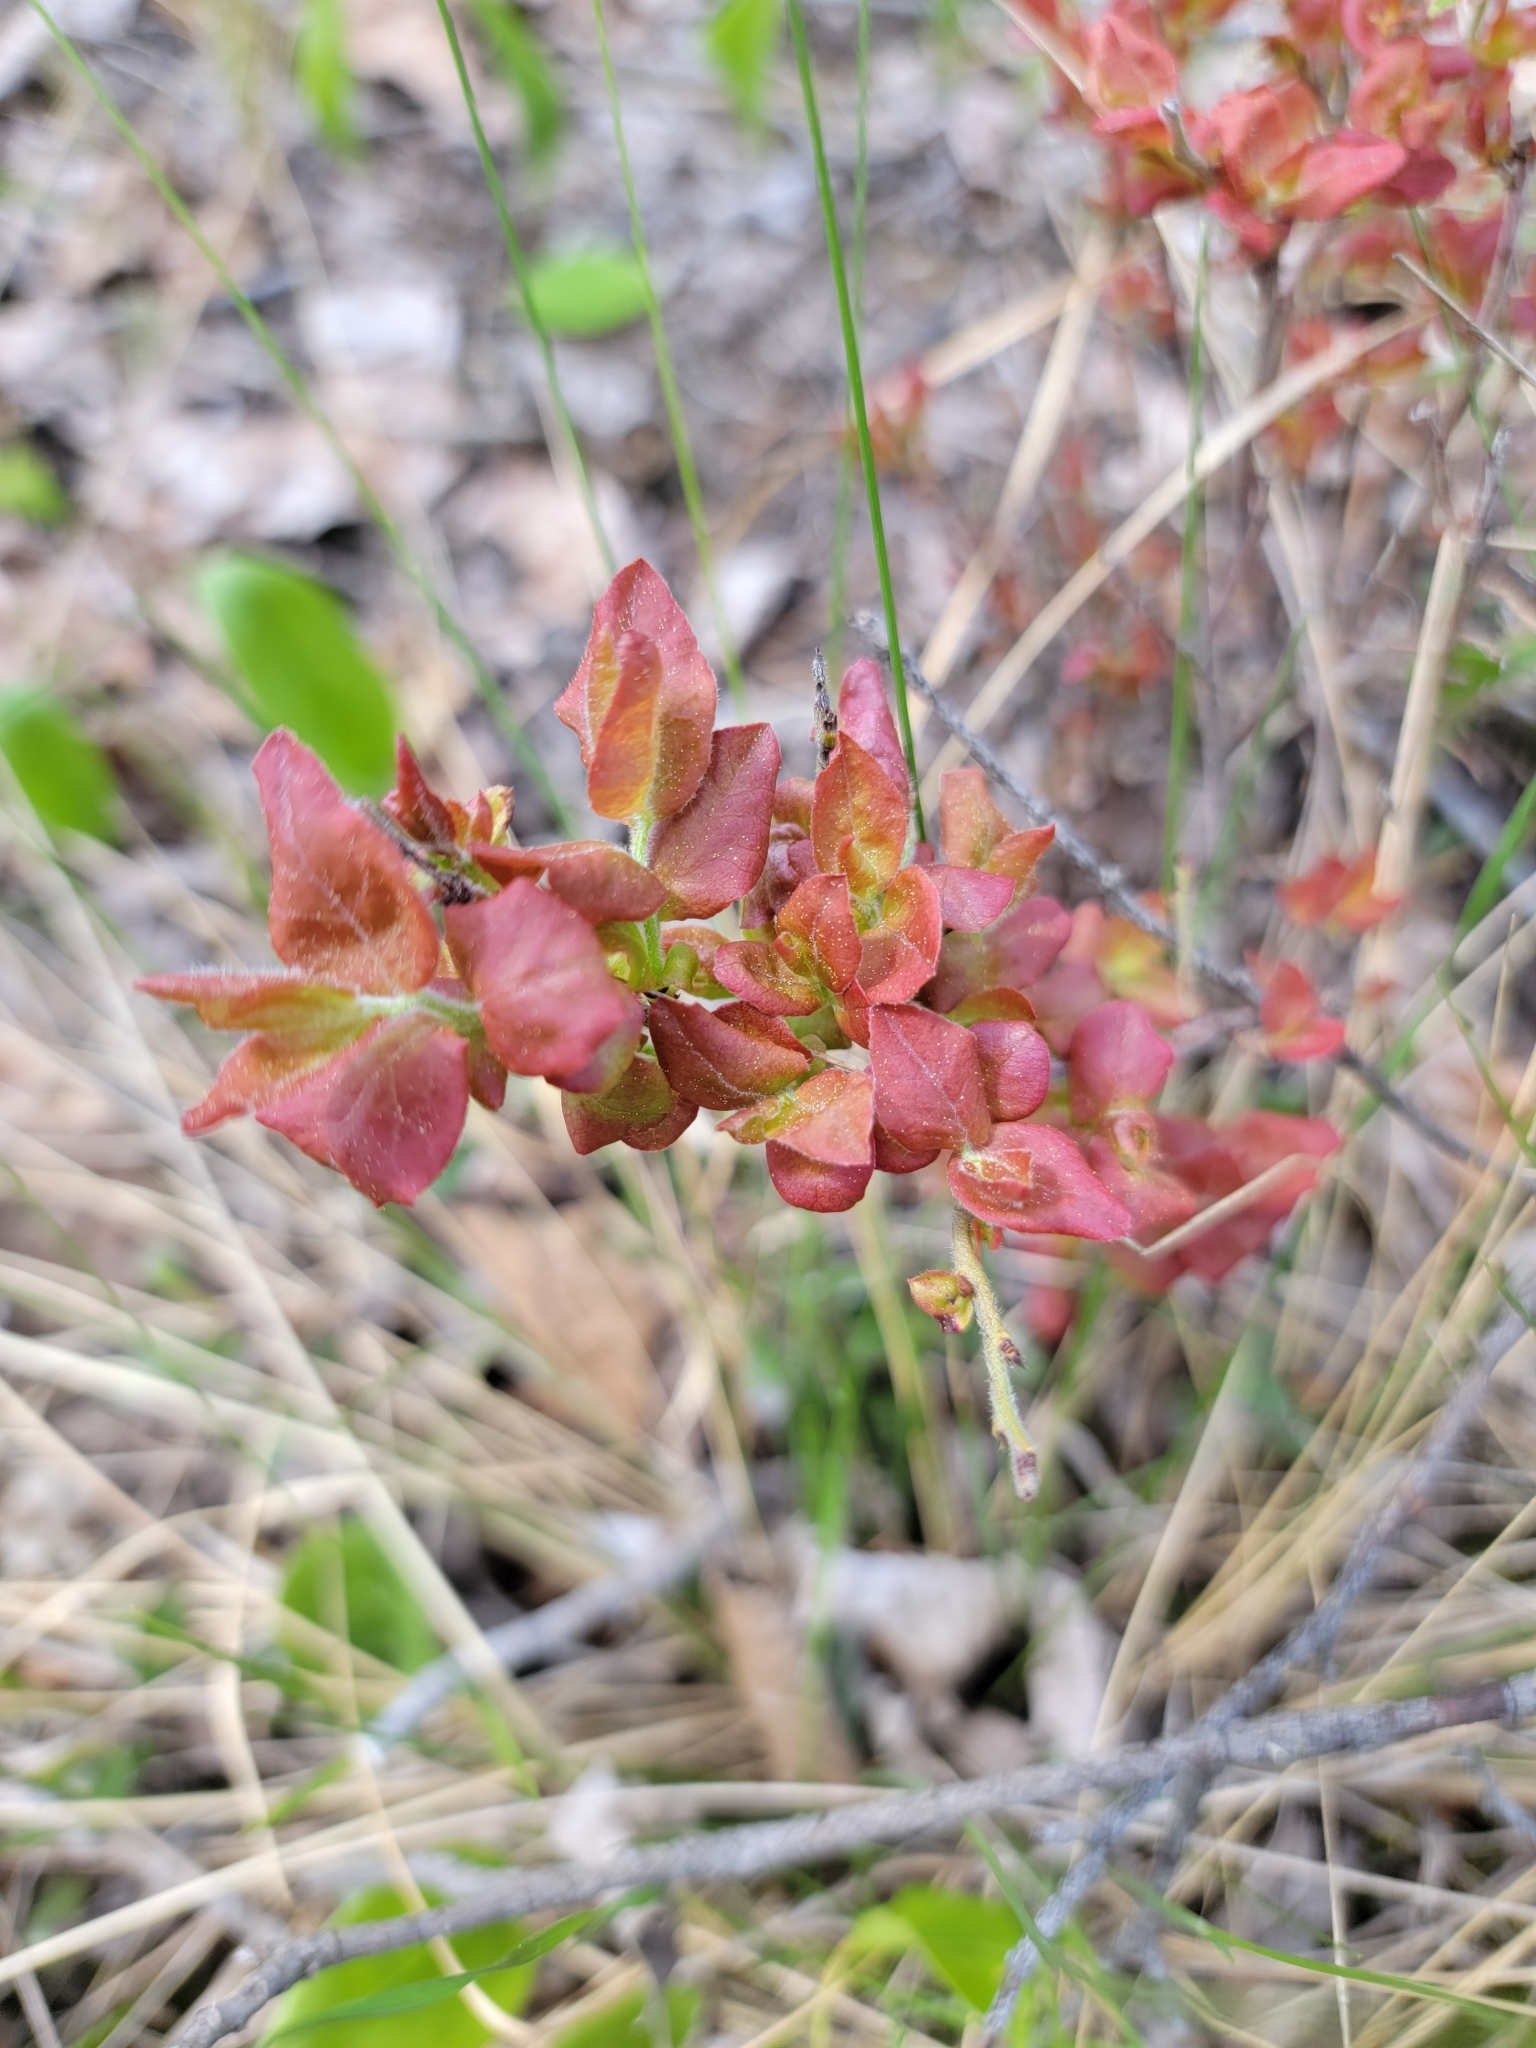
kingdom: Plantae
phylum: Tracheophyta
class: Magnoliopsida
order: Ericales
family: Ericaceae
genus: Vaccinium
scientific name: Vaccinium myrtilloides
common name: Canada blueberry
